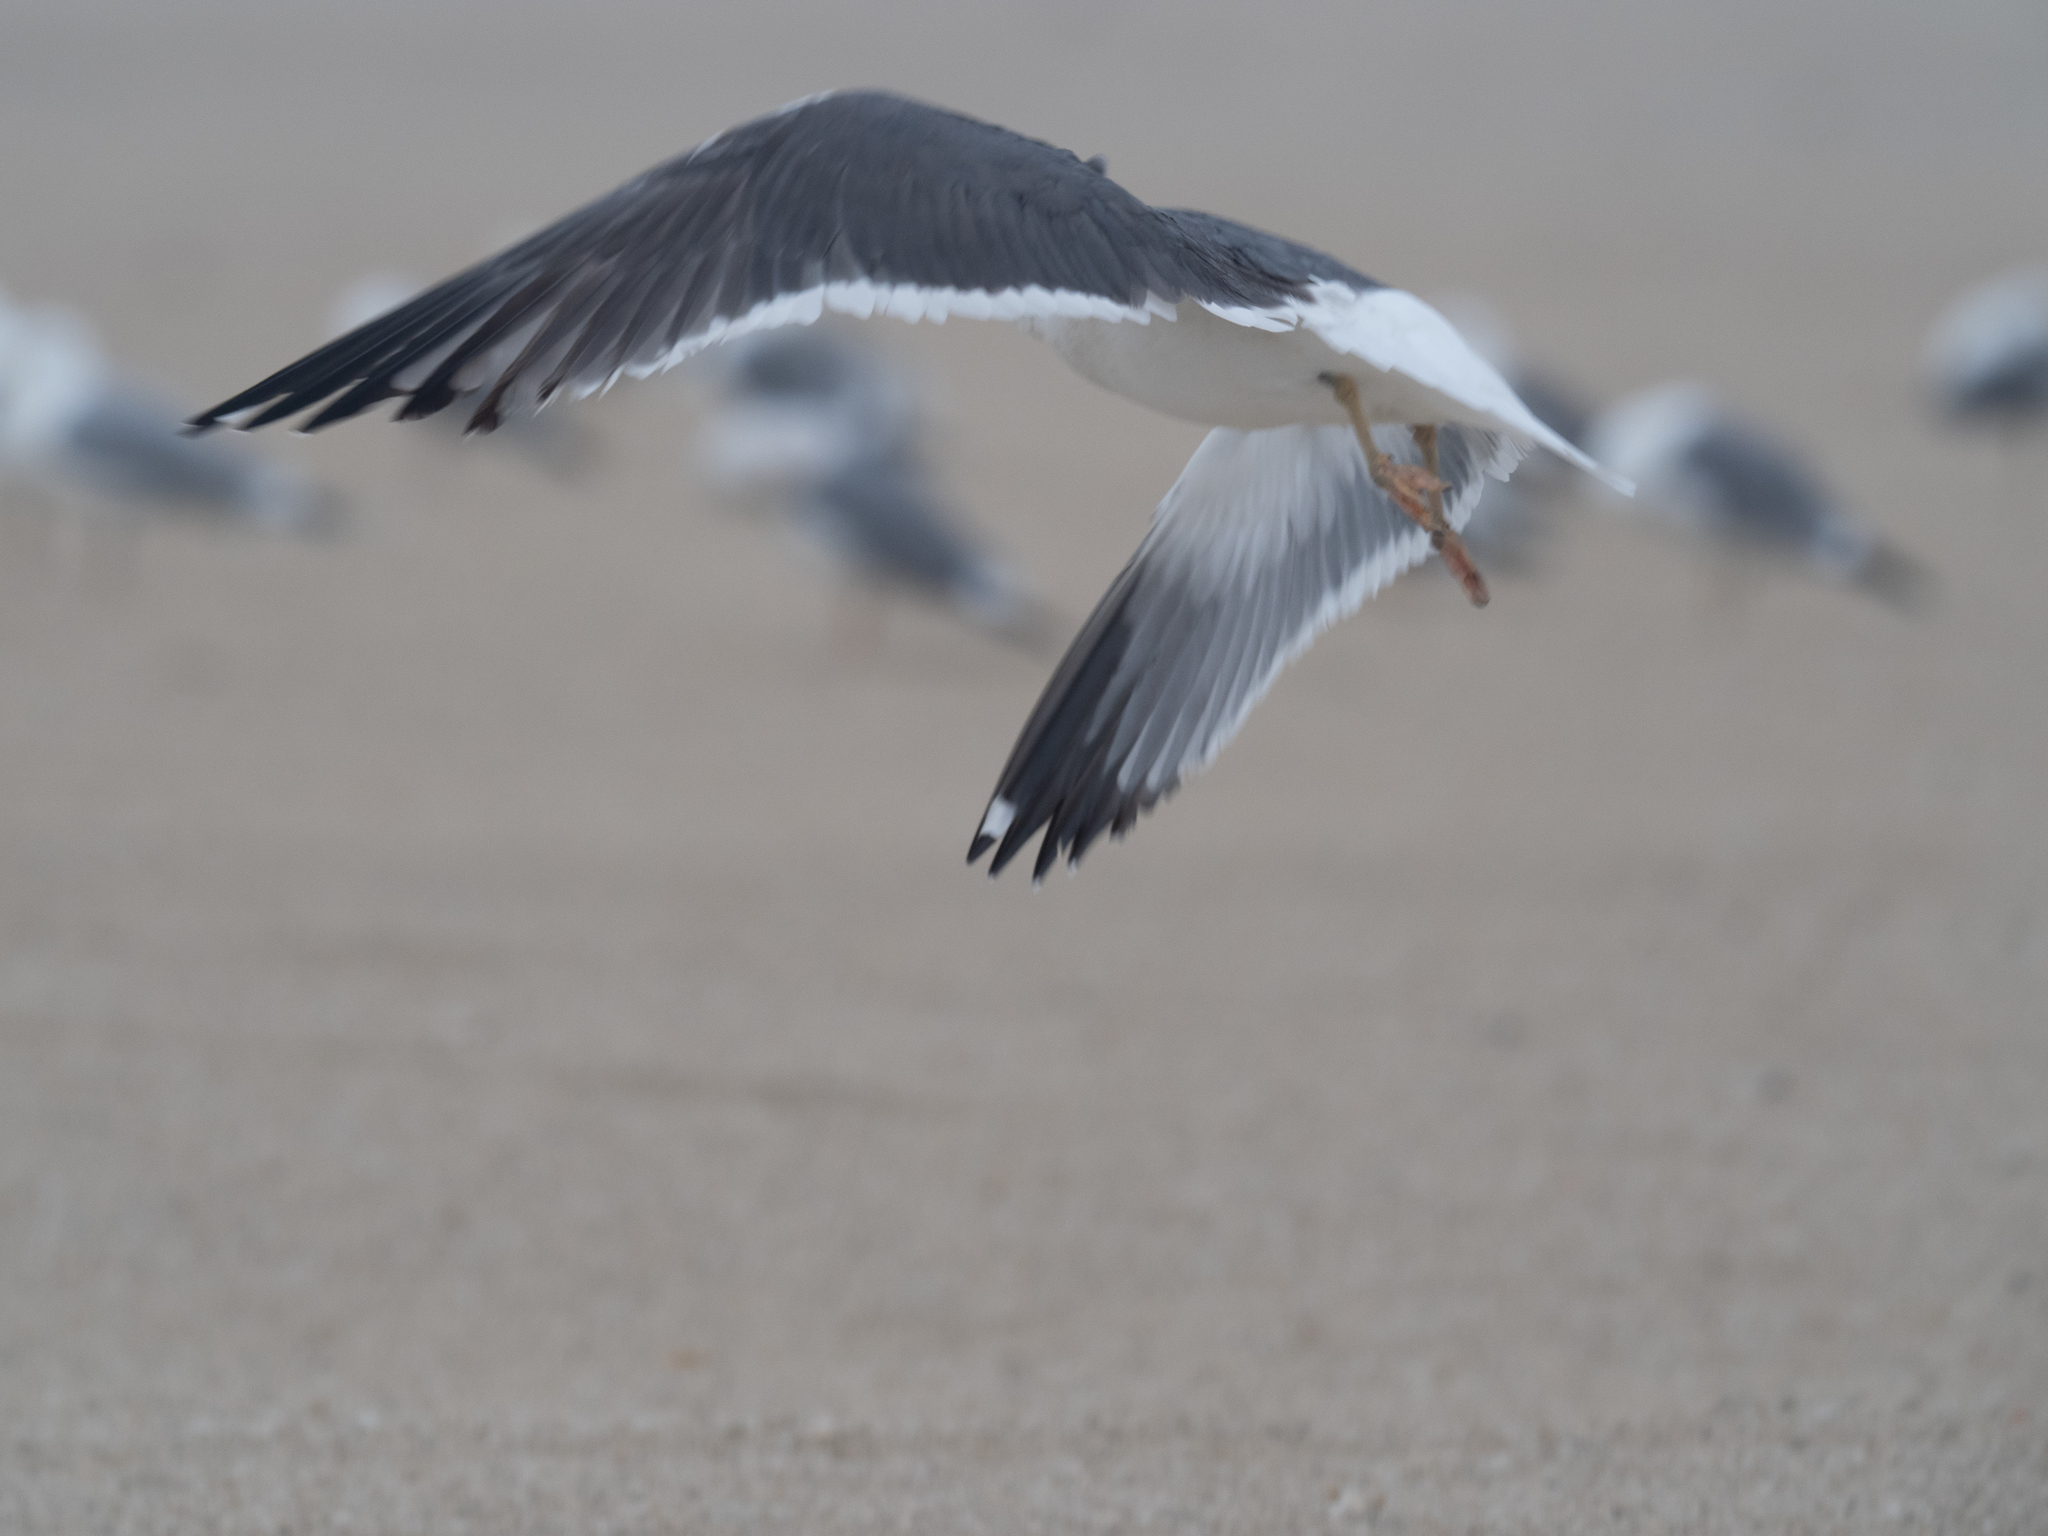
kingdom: Animalia
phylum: Chordata
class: Aves
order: Charadriiformes
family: Laridae
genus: Larus
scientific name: Larus fuscus
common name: Lesser black-backed gull
